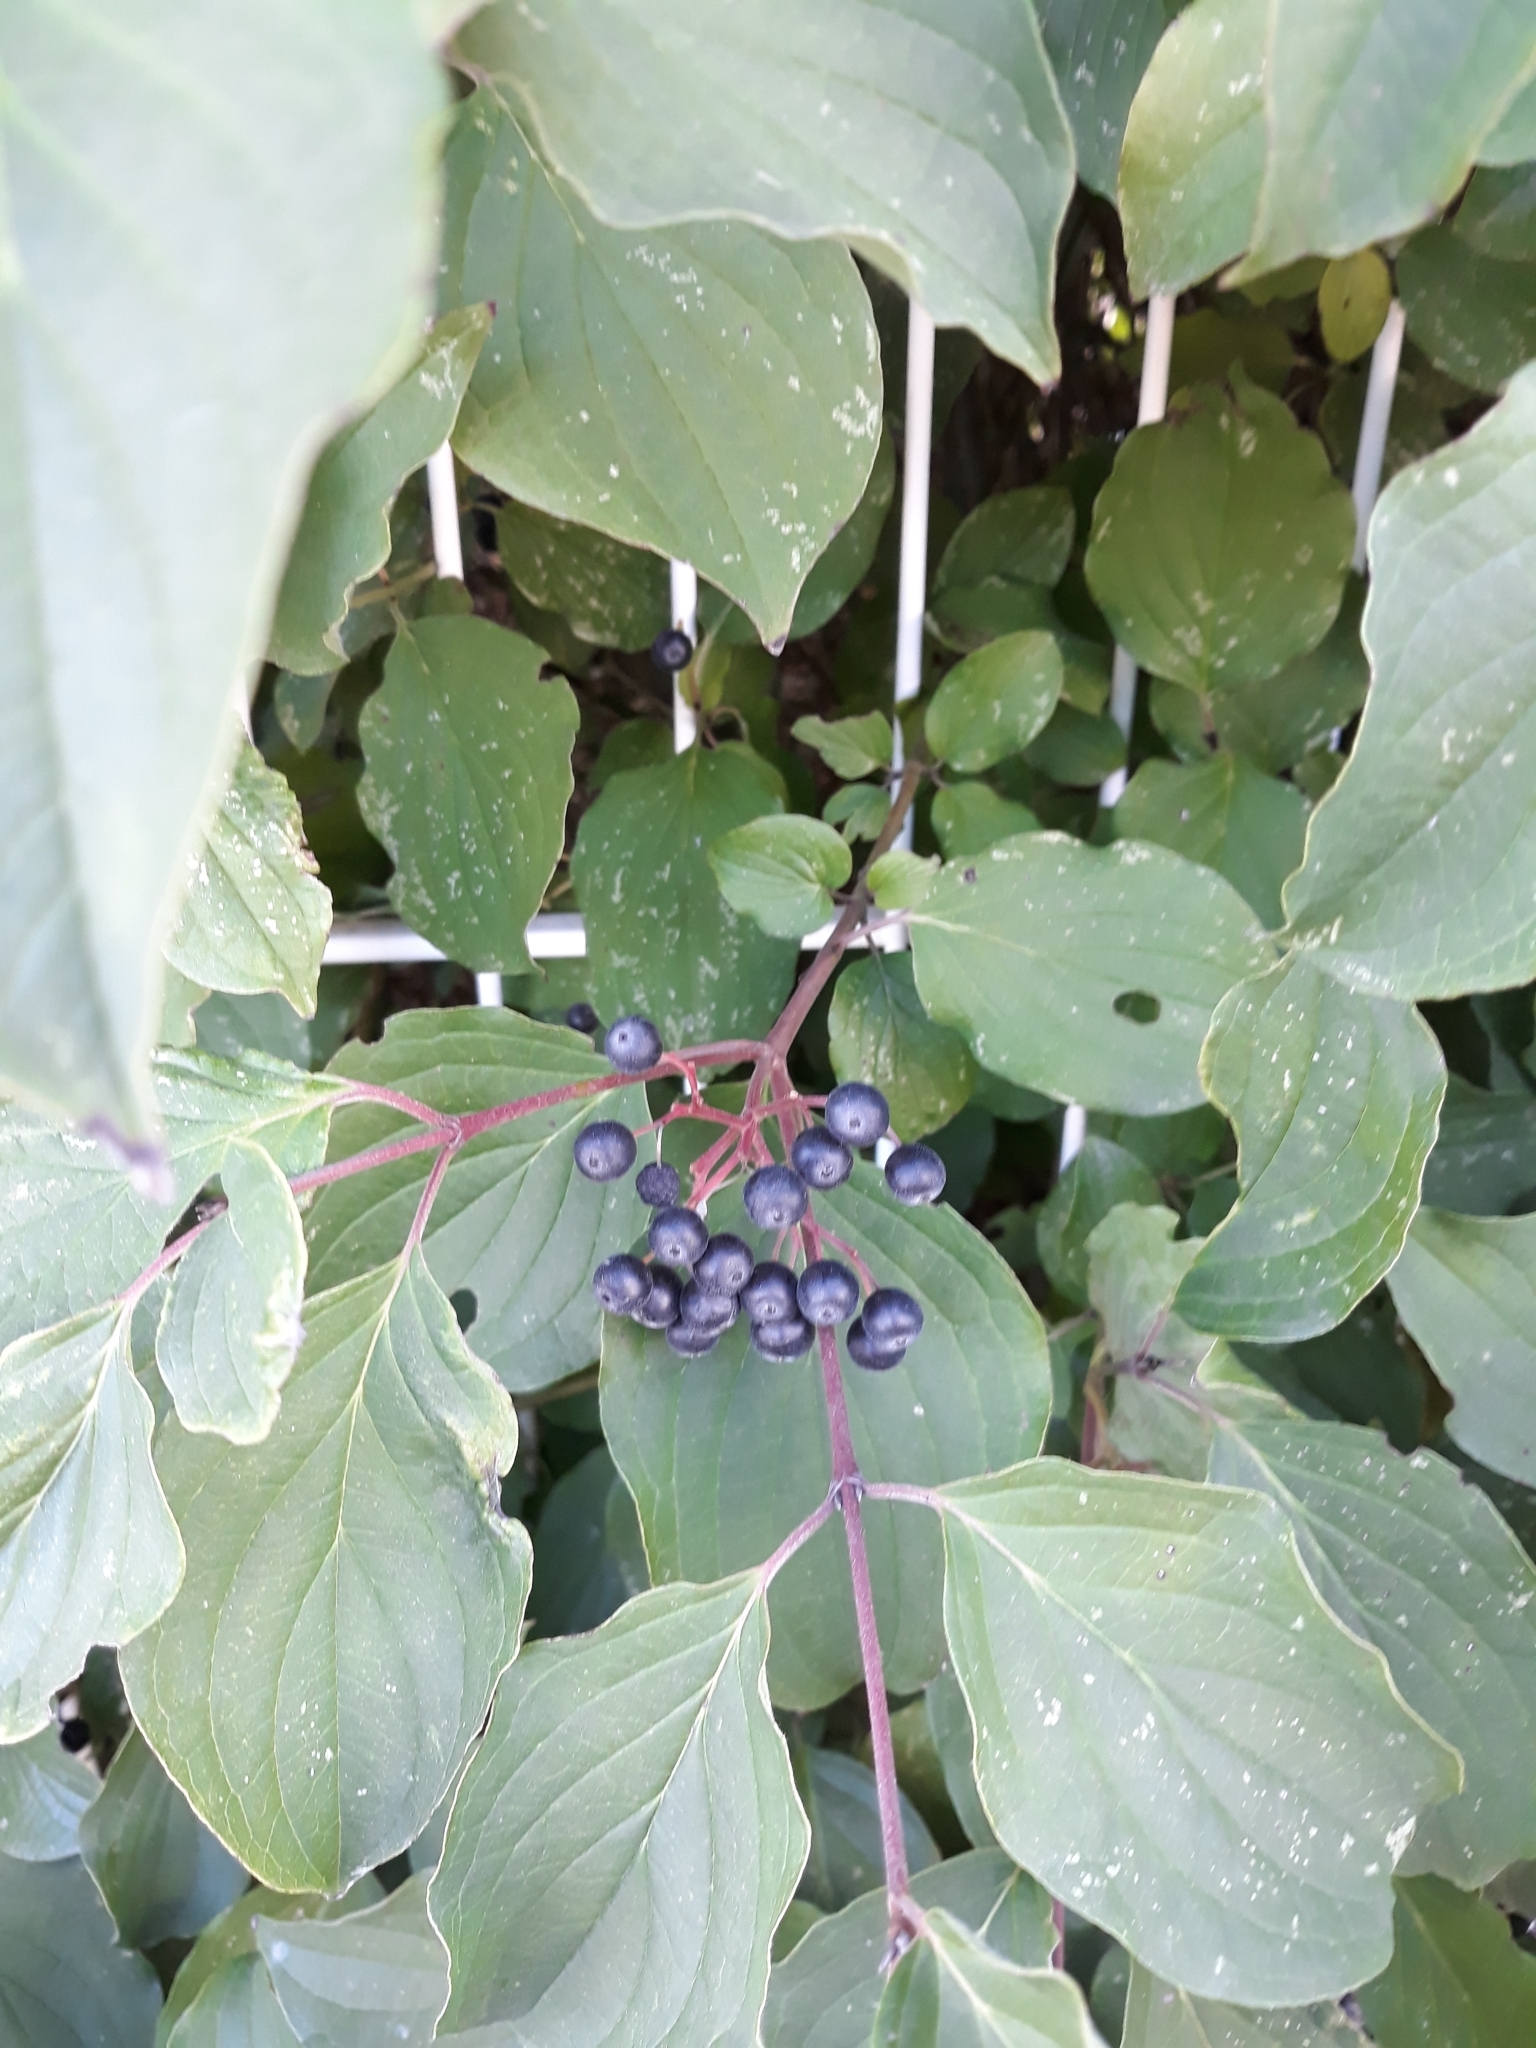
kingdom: Plantae
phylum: Tracheophyta
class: Magnoliopsida
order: Cornales
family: Cornaceae
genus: Cornus
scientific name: Cornus sanguinea
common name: Dogwood
